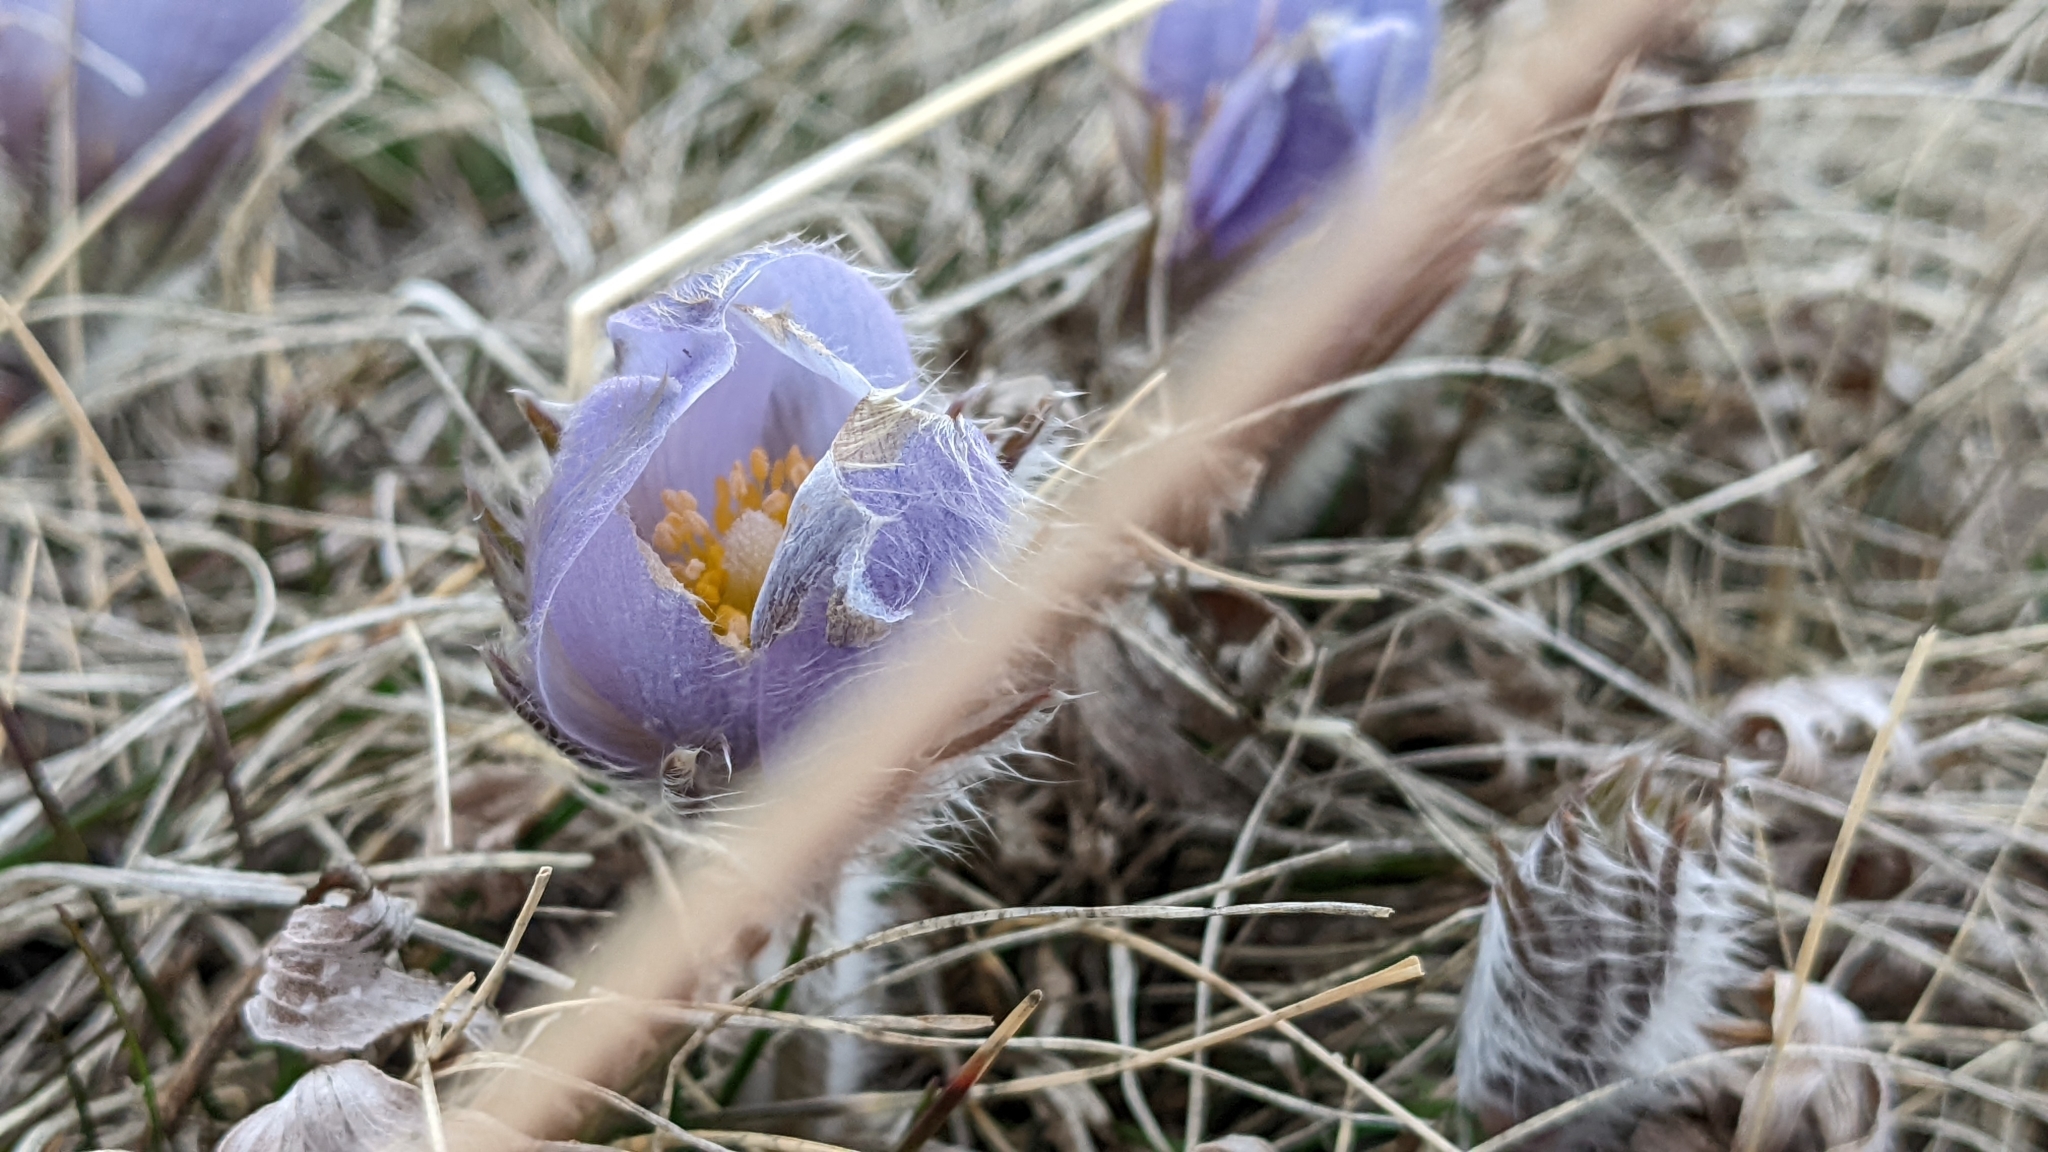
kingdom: Plantae
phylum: Tracheophyta
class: Magnoliopsida
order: Ranunculales
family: Ranunculaceae
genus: Pulsatilla
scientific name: Pulsatilla nuttalliana
